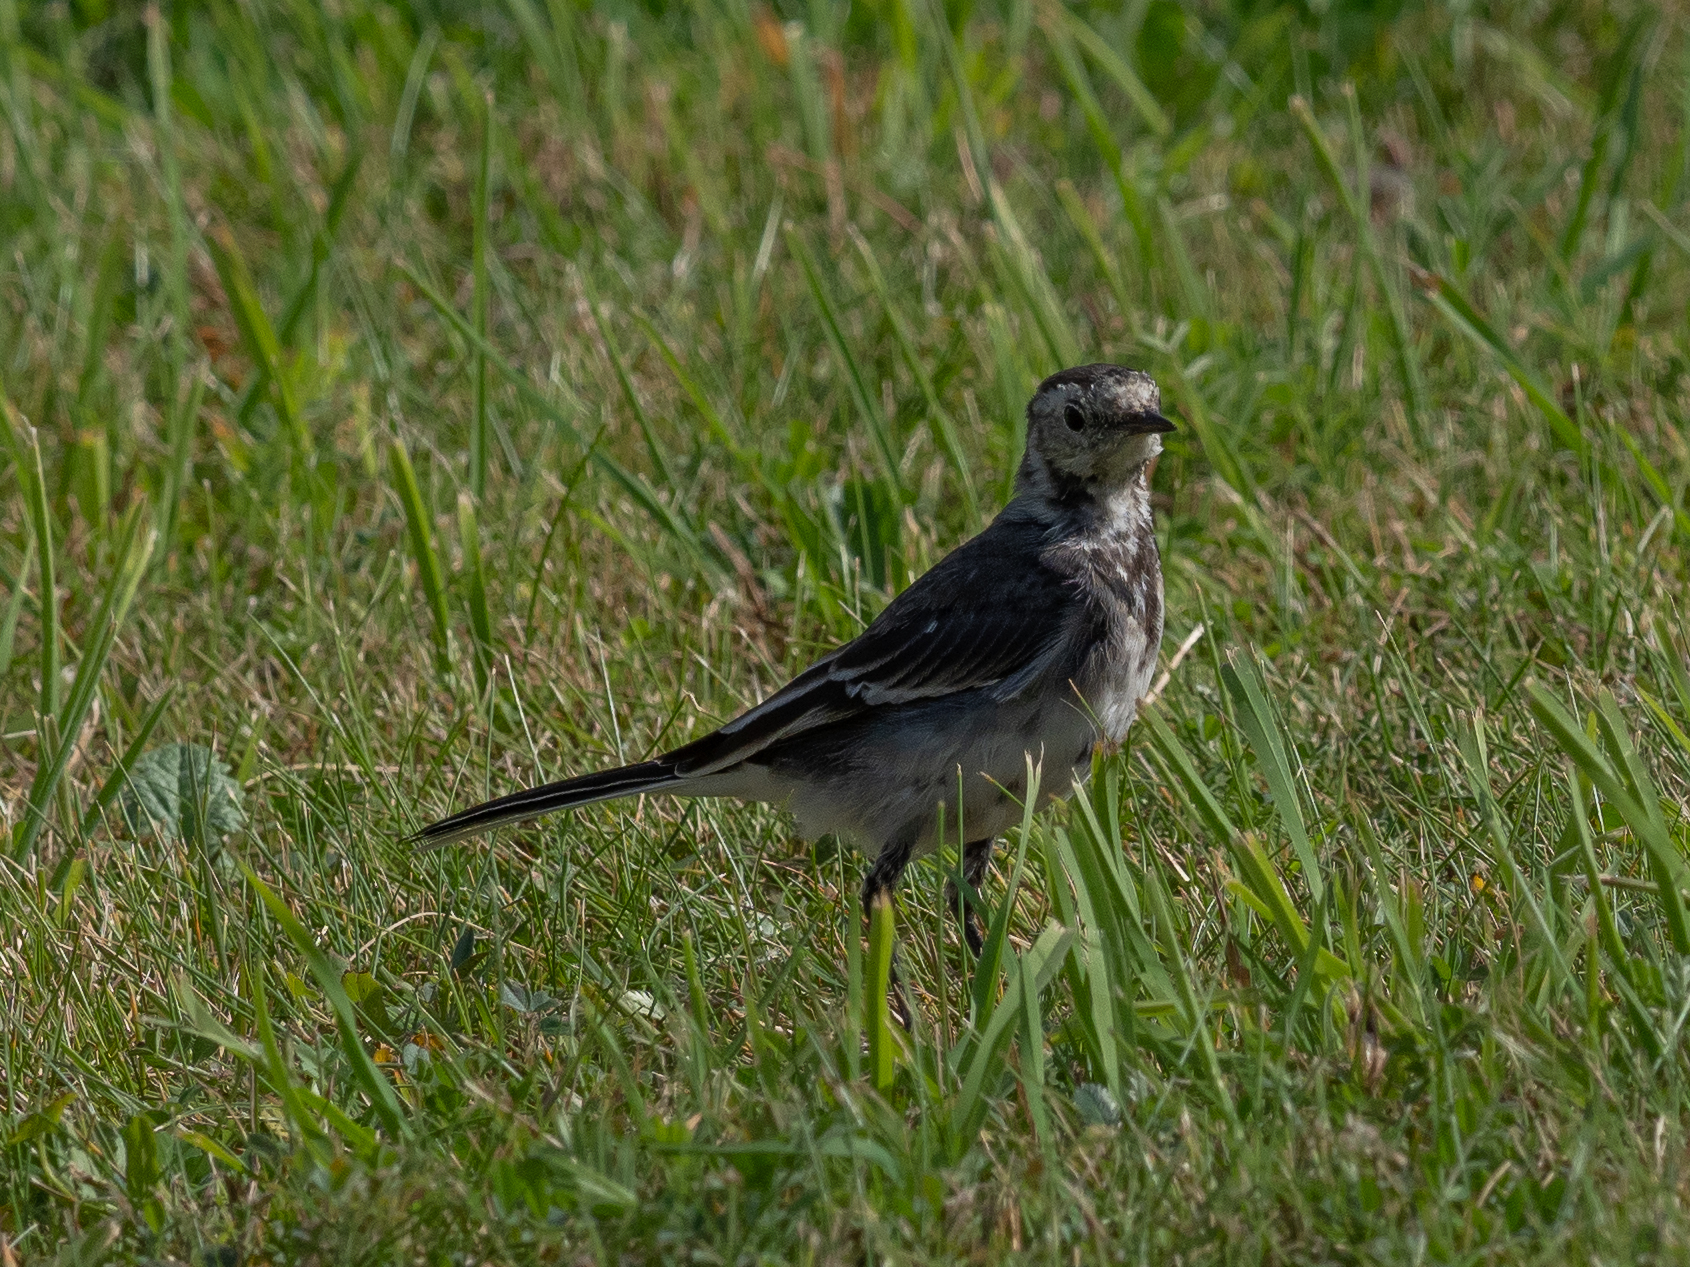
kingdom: Animalia
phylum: Chordata
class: Aves
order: Passeriformes
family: Motacillidae
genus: Motacilla
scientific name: Motacilla alba
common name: White wagtail
